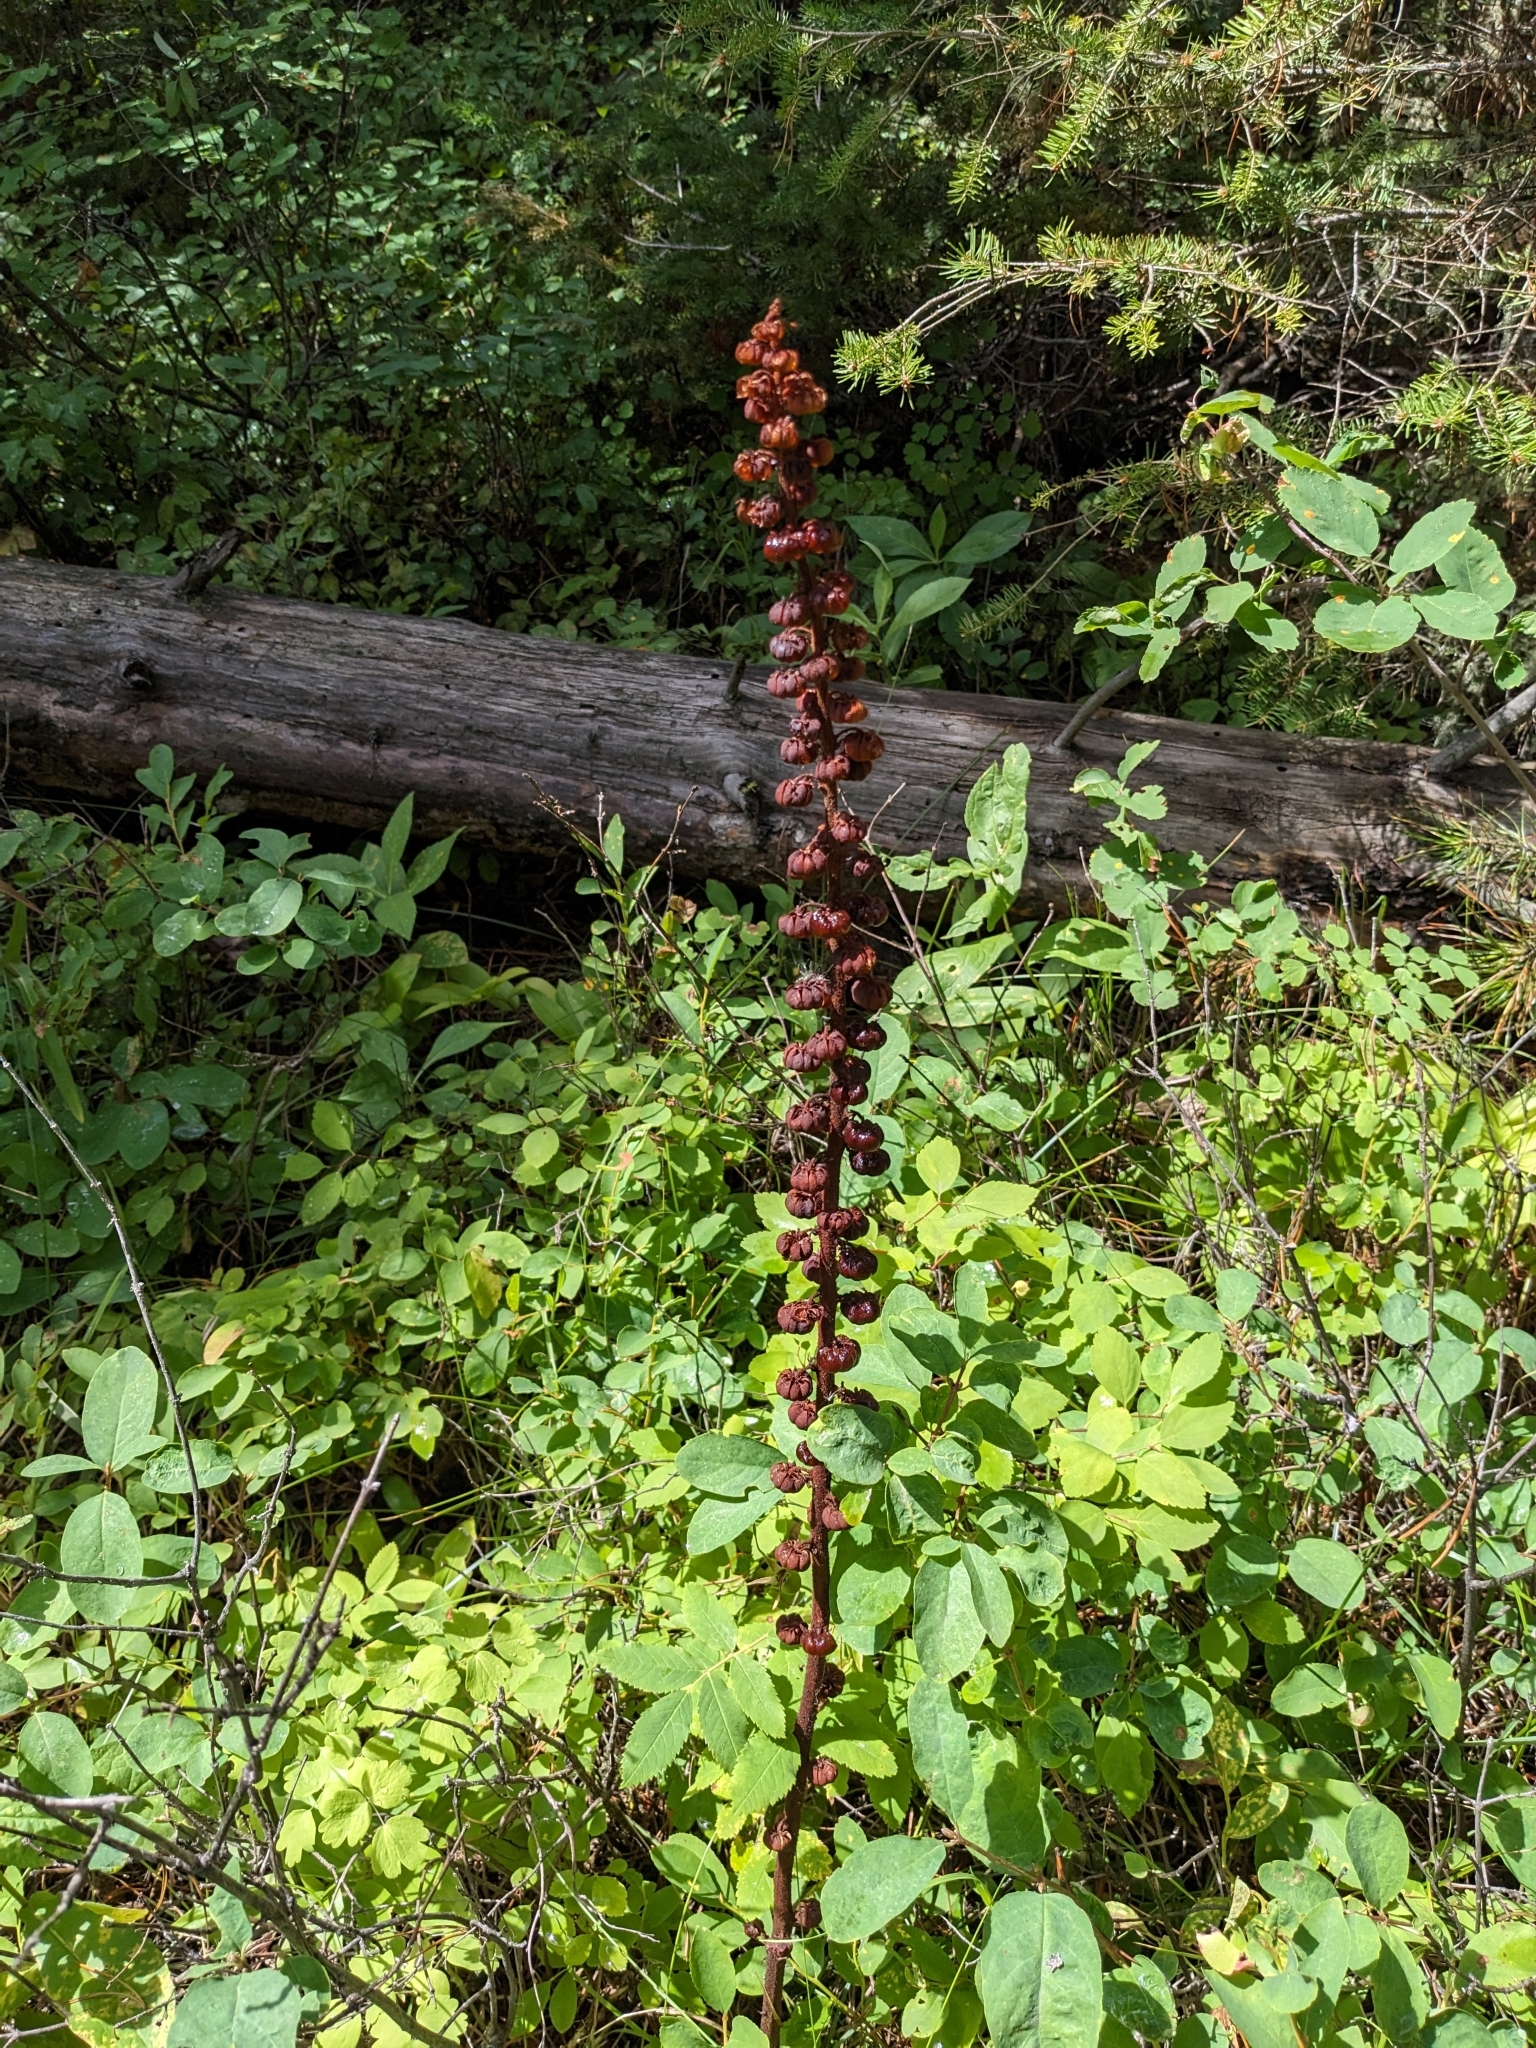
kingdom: Plantae
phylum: Tracheophyta
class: Magnoliopsida
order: Ericales
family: Ericaceae
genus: Pterospora
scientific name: Pterospora andromedea
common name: Giant bird's-nest
